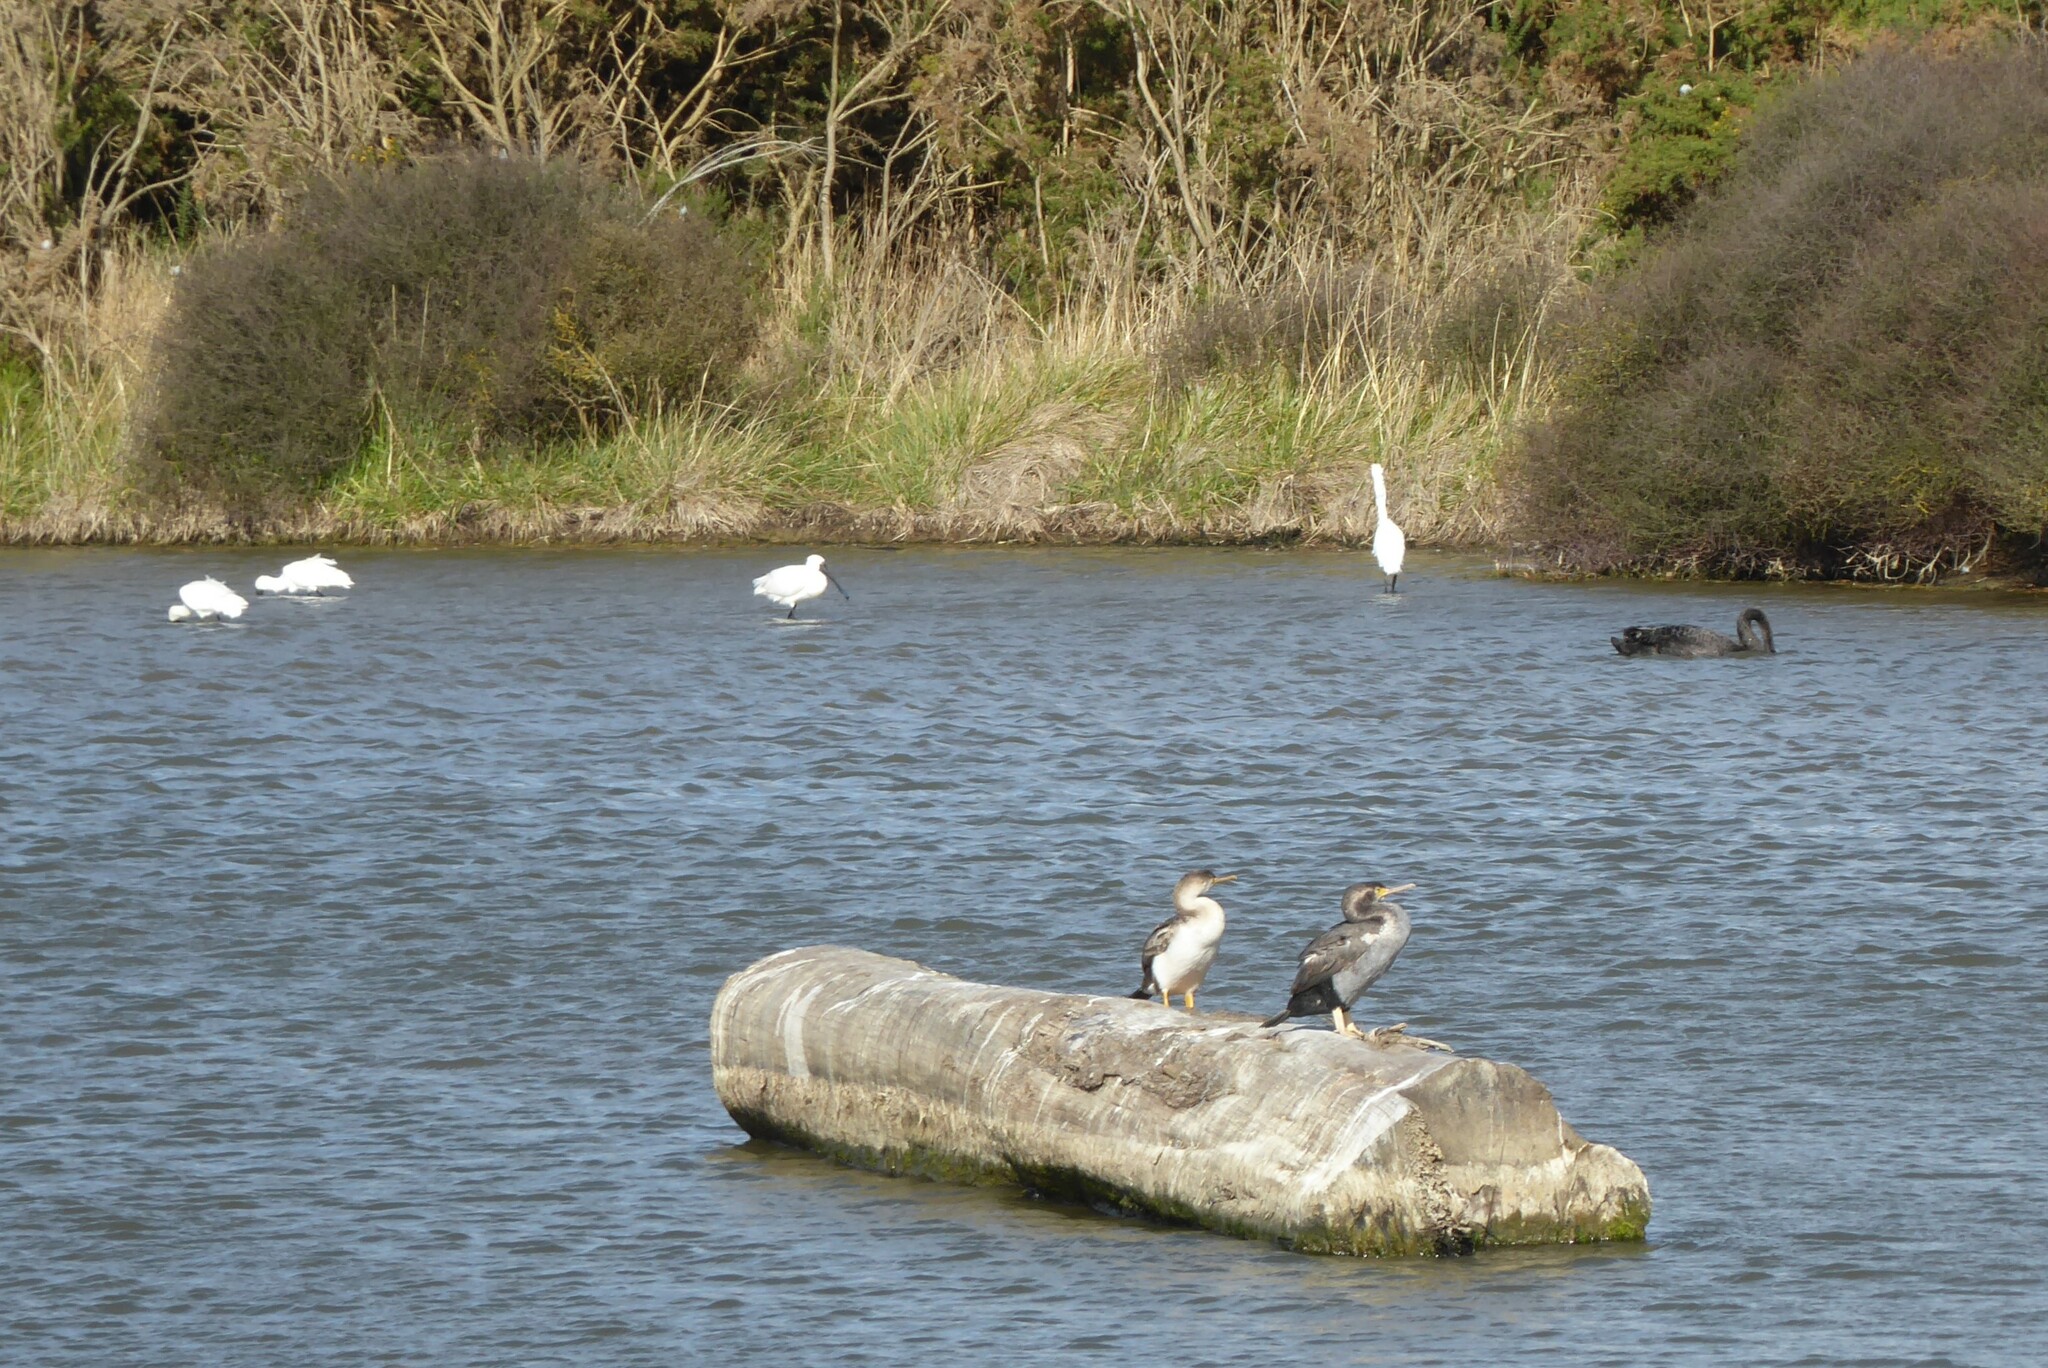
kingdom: Animalia
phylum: Chordata
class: Aves
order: Suliformes
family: Phalacrocoracidae
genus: Phalacrocorax
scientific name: Phalacrocorax punctatus
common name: Spotted shag
